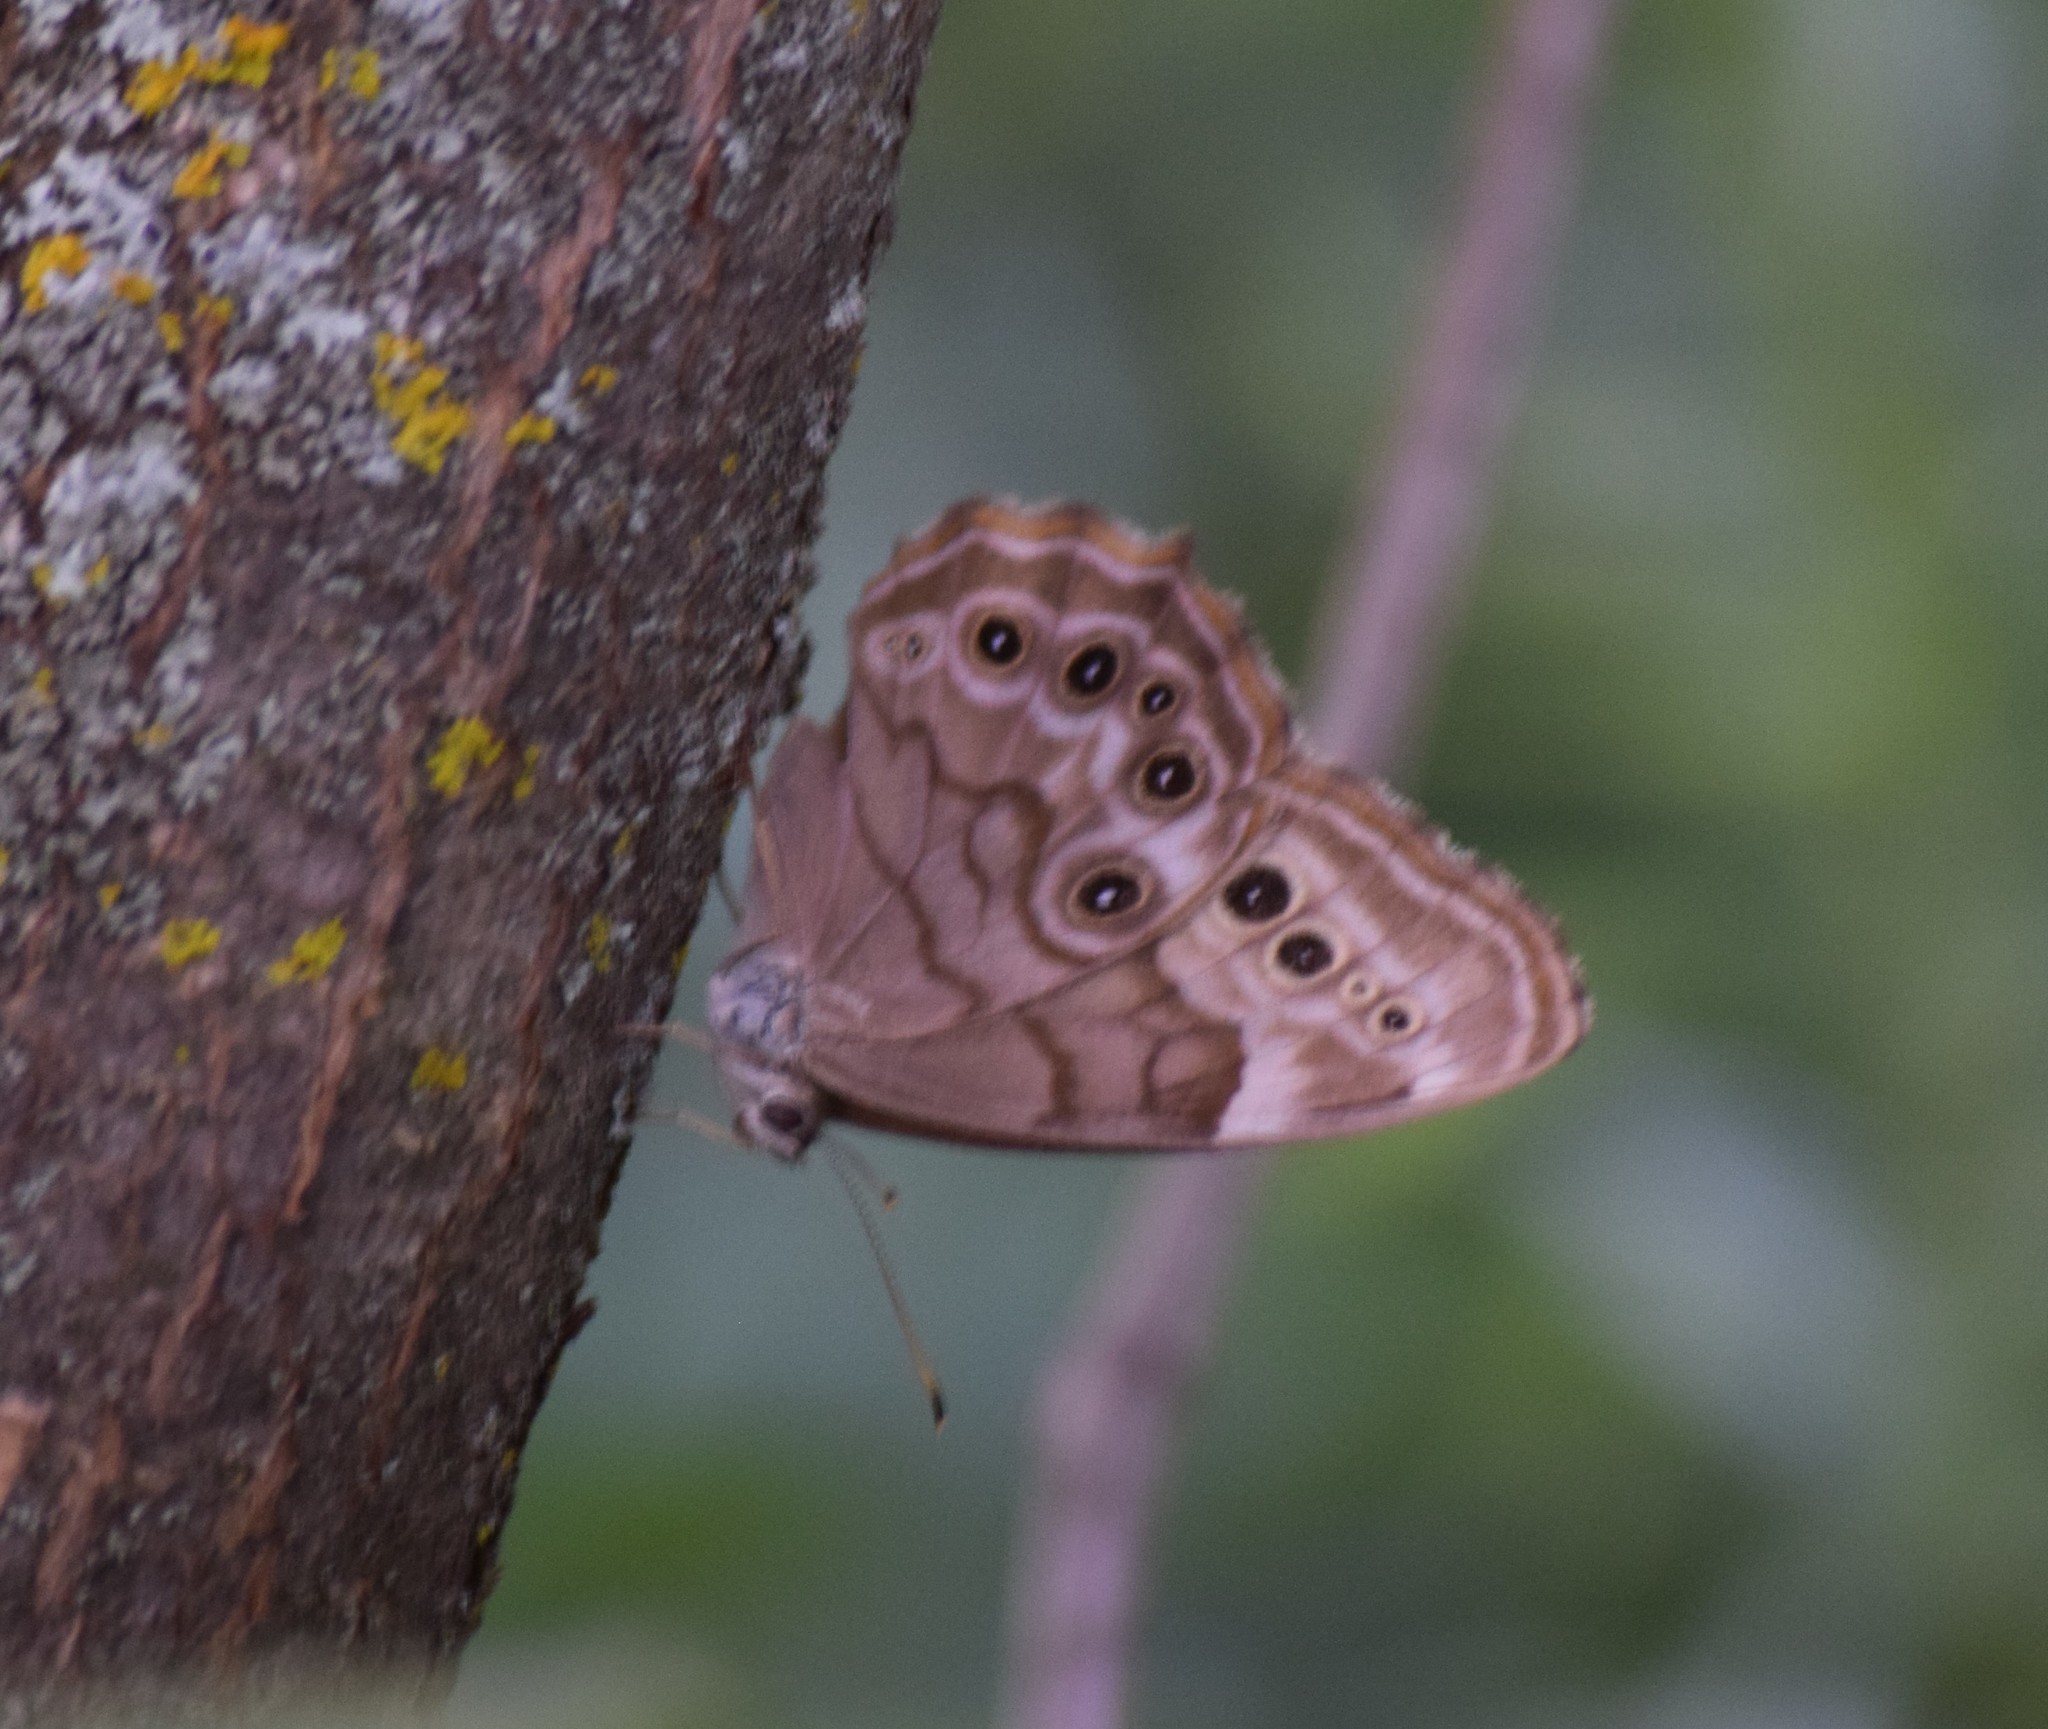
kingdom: Animalia
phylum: Arthropoda
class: Insecta
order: Lepidoptera
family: Nymphalidae
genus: Lethe
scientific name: Lethe anthedon
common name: Northern pearly-eye
